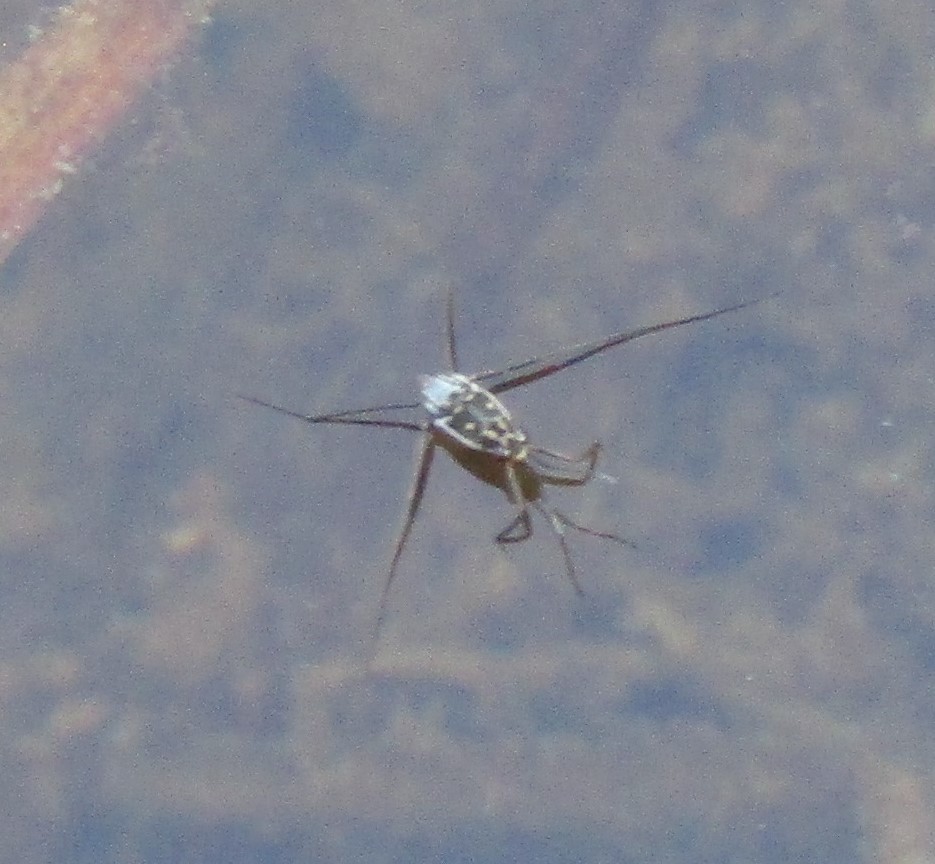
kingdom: Animalia
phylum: Arthropoda
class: Insecta
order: Hemiptera
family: Gerridae
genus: Trepobates
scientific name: Trepobates subnitidus
